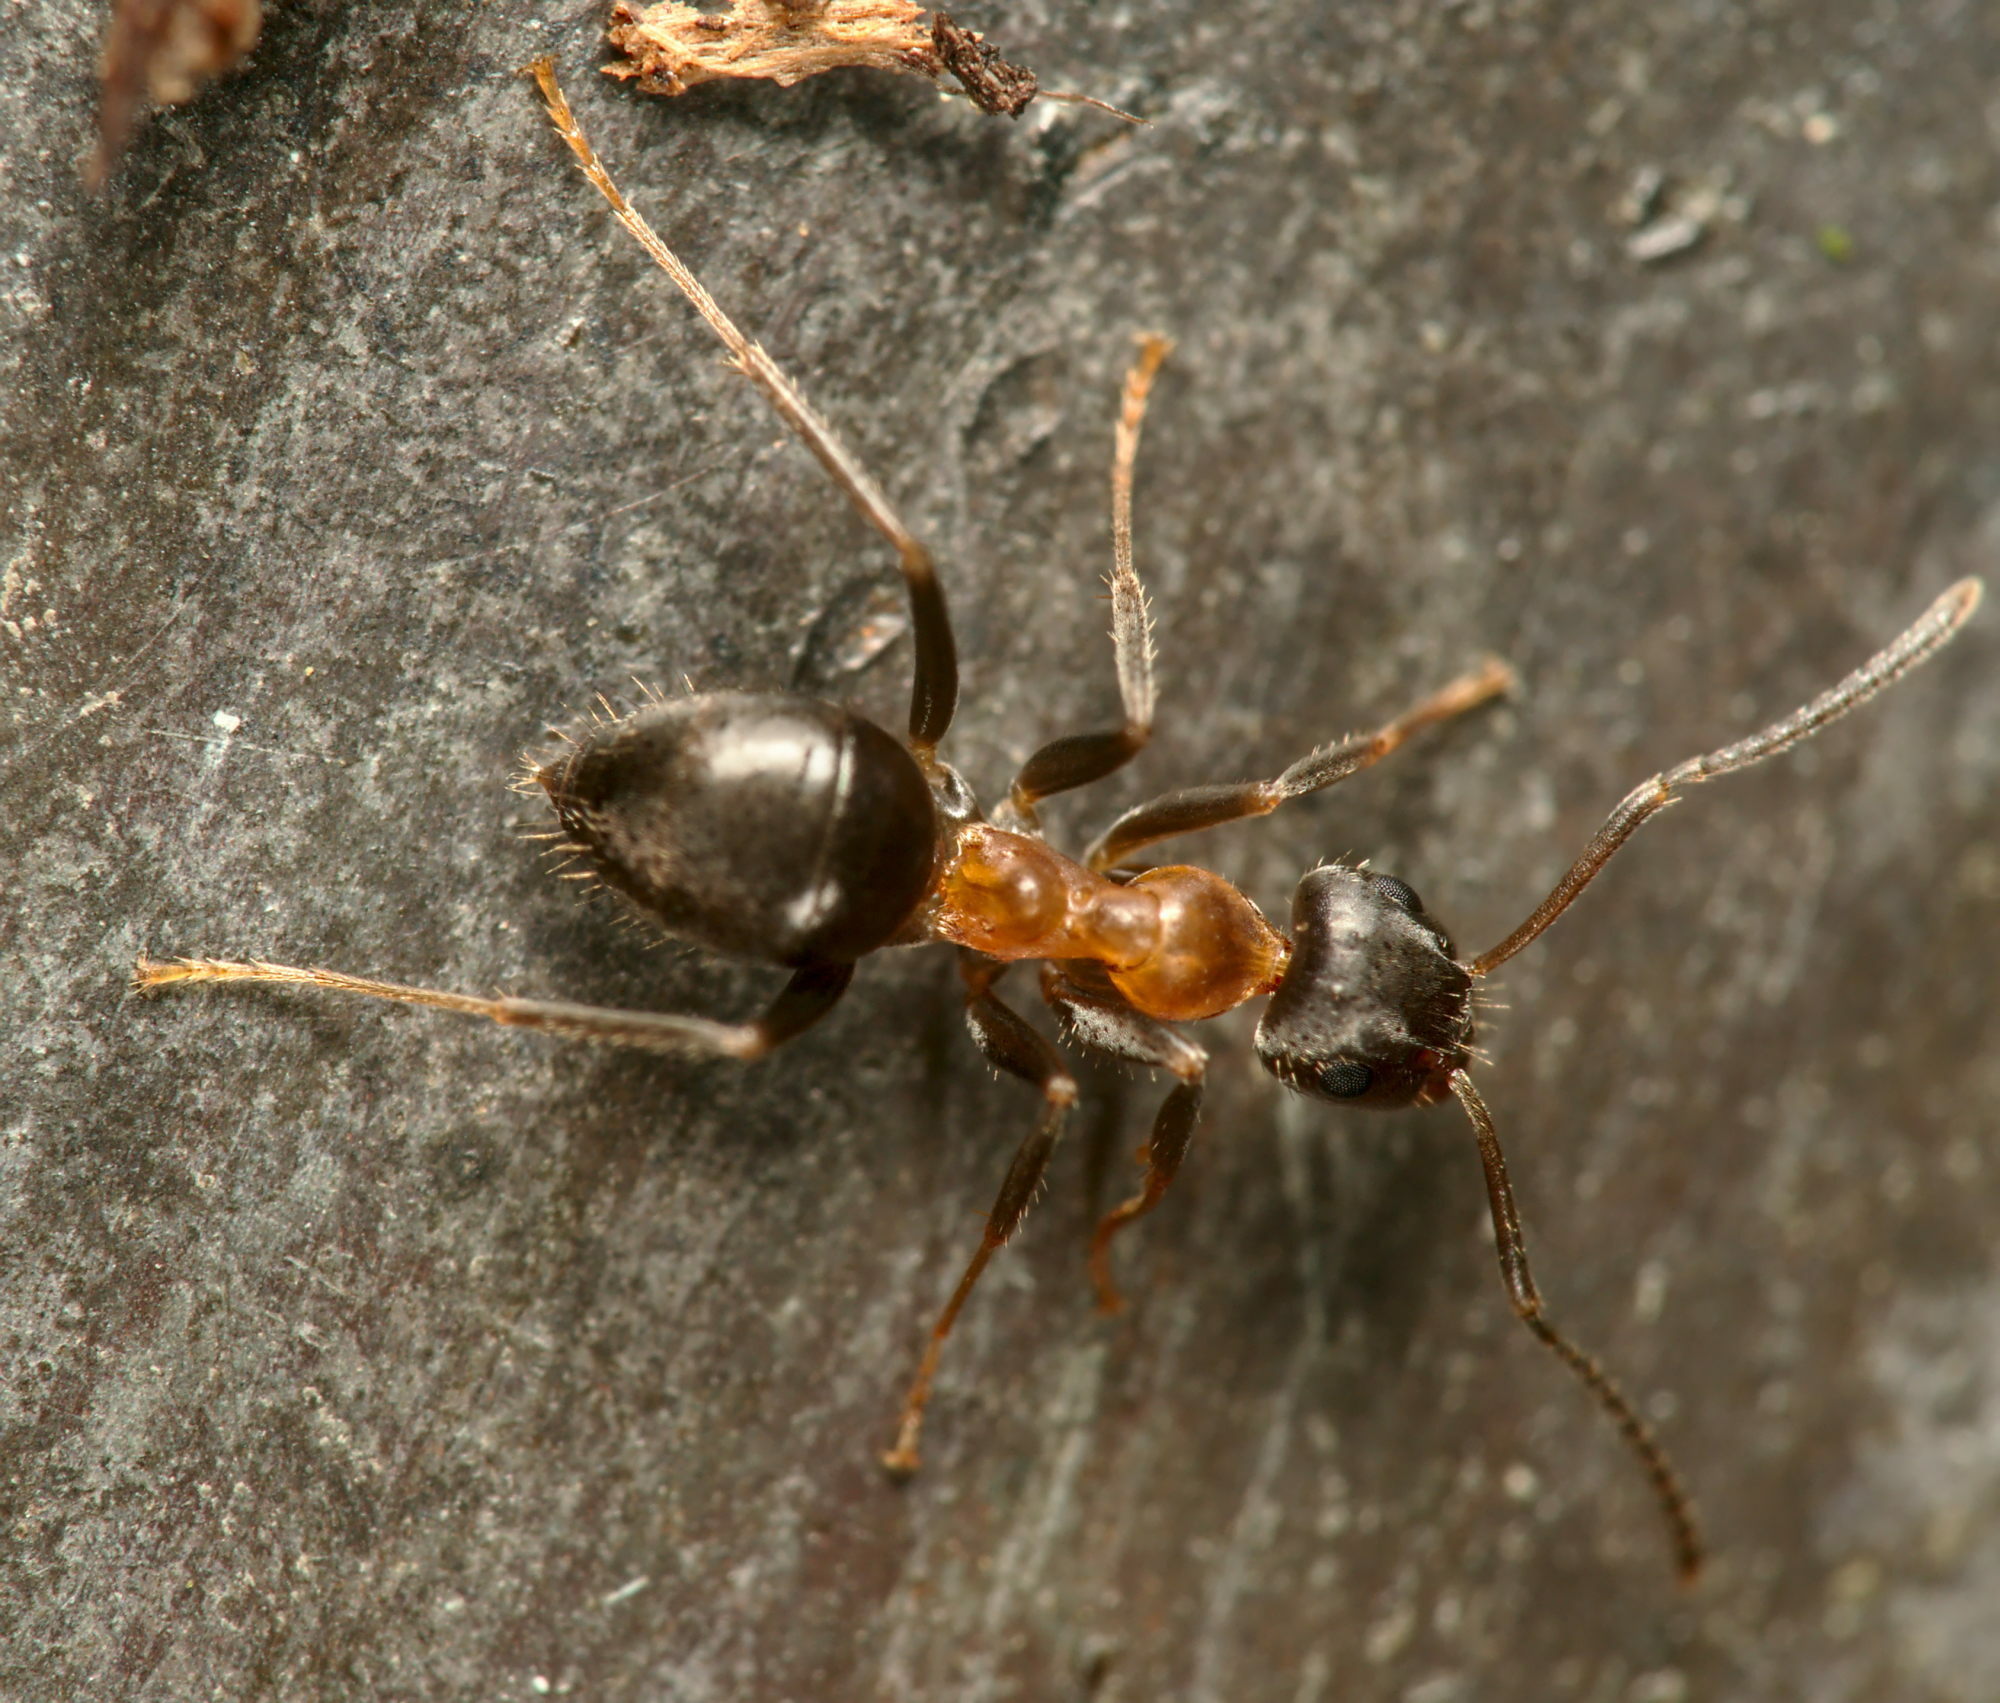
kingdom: Animalia
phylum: Arthropoda
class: Insecta
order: Hymenoptera
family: Formicidae
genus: Lasius
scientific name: Lasius emarginatus
